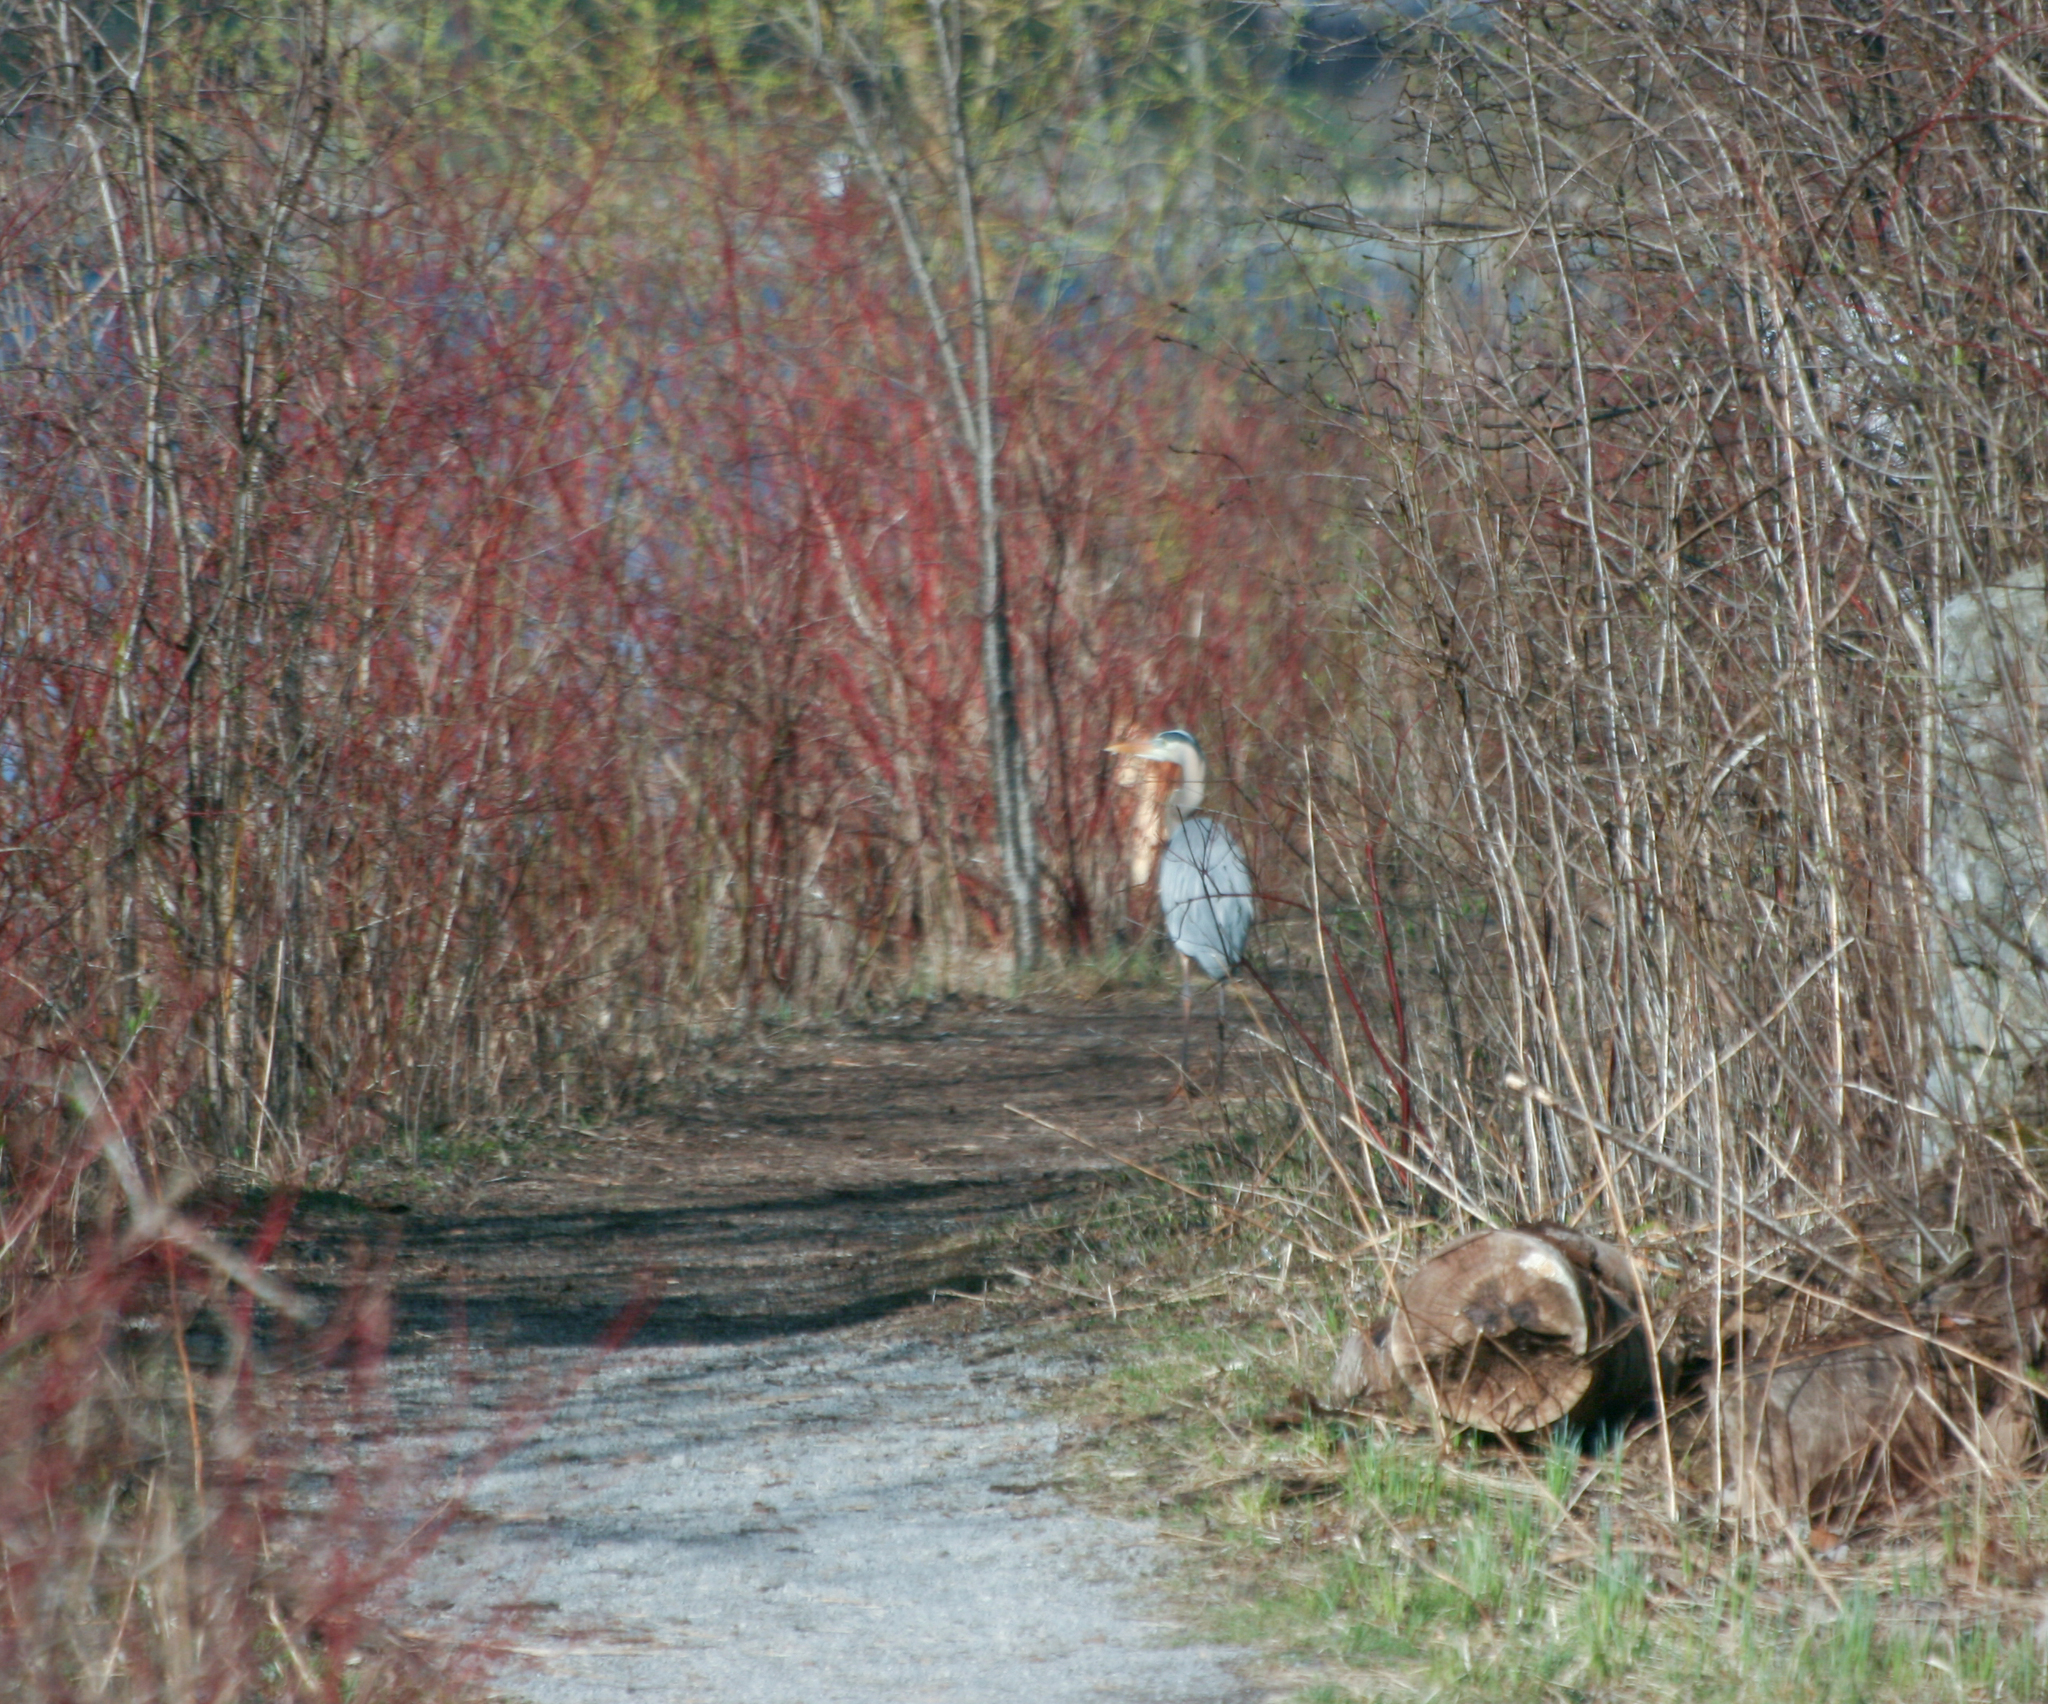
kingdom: Animalia
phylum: Chordata
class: Aves
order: Pelecaniformes
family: Ardeidae
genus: Ardea
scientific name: Ardea herodias
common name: Great blue heron
